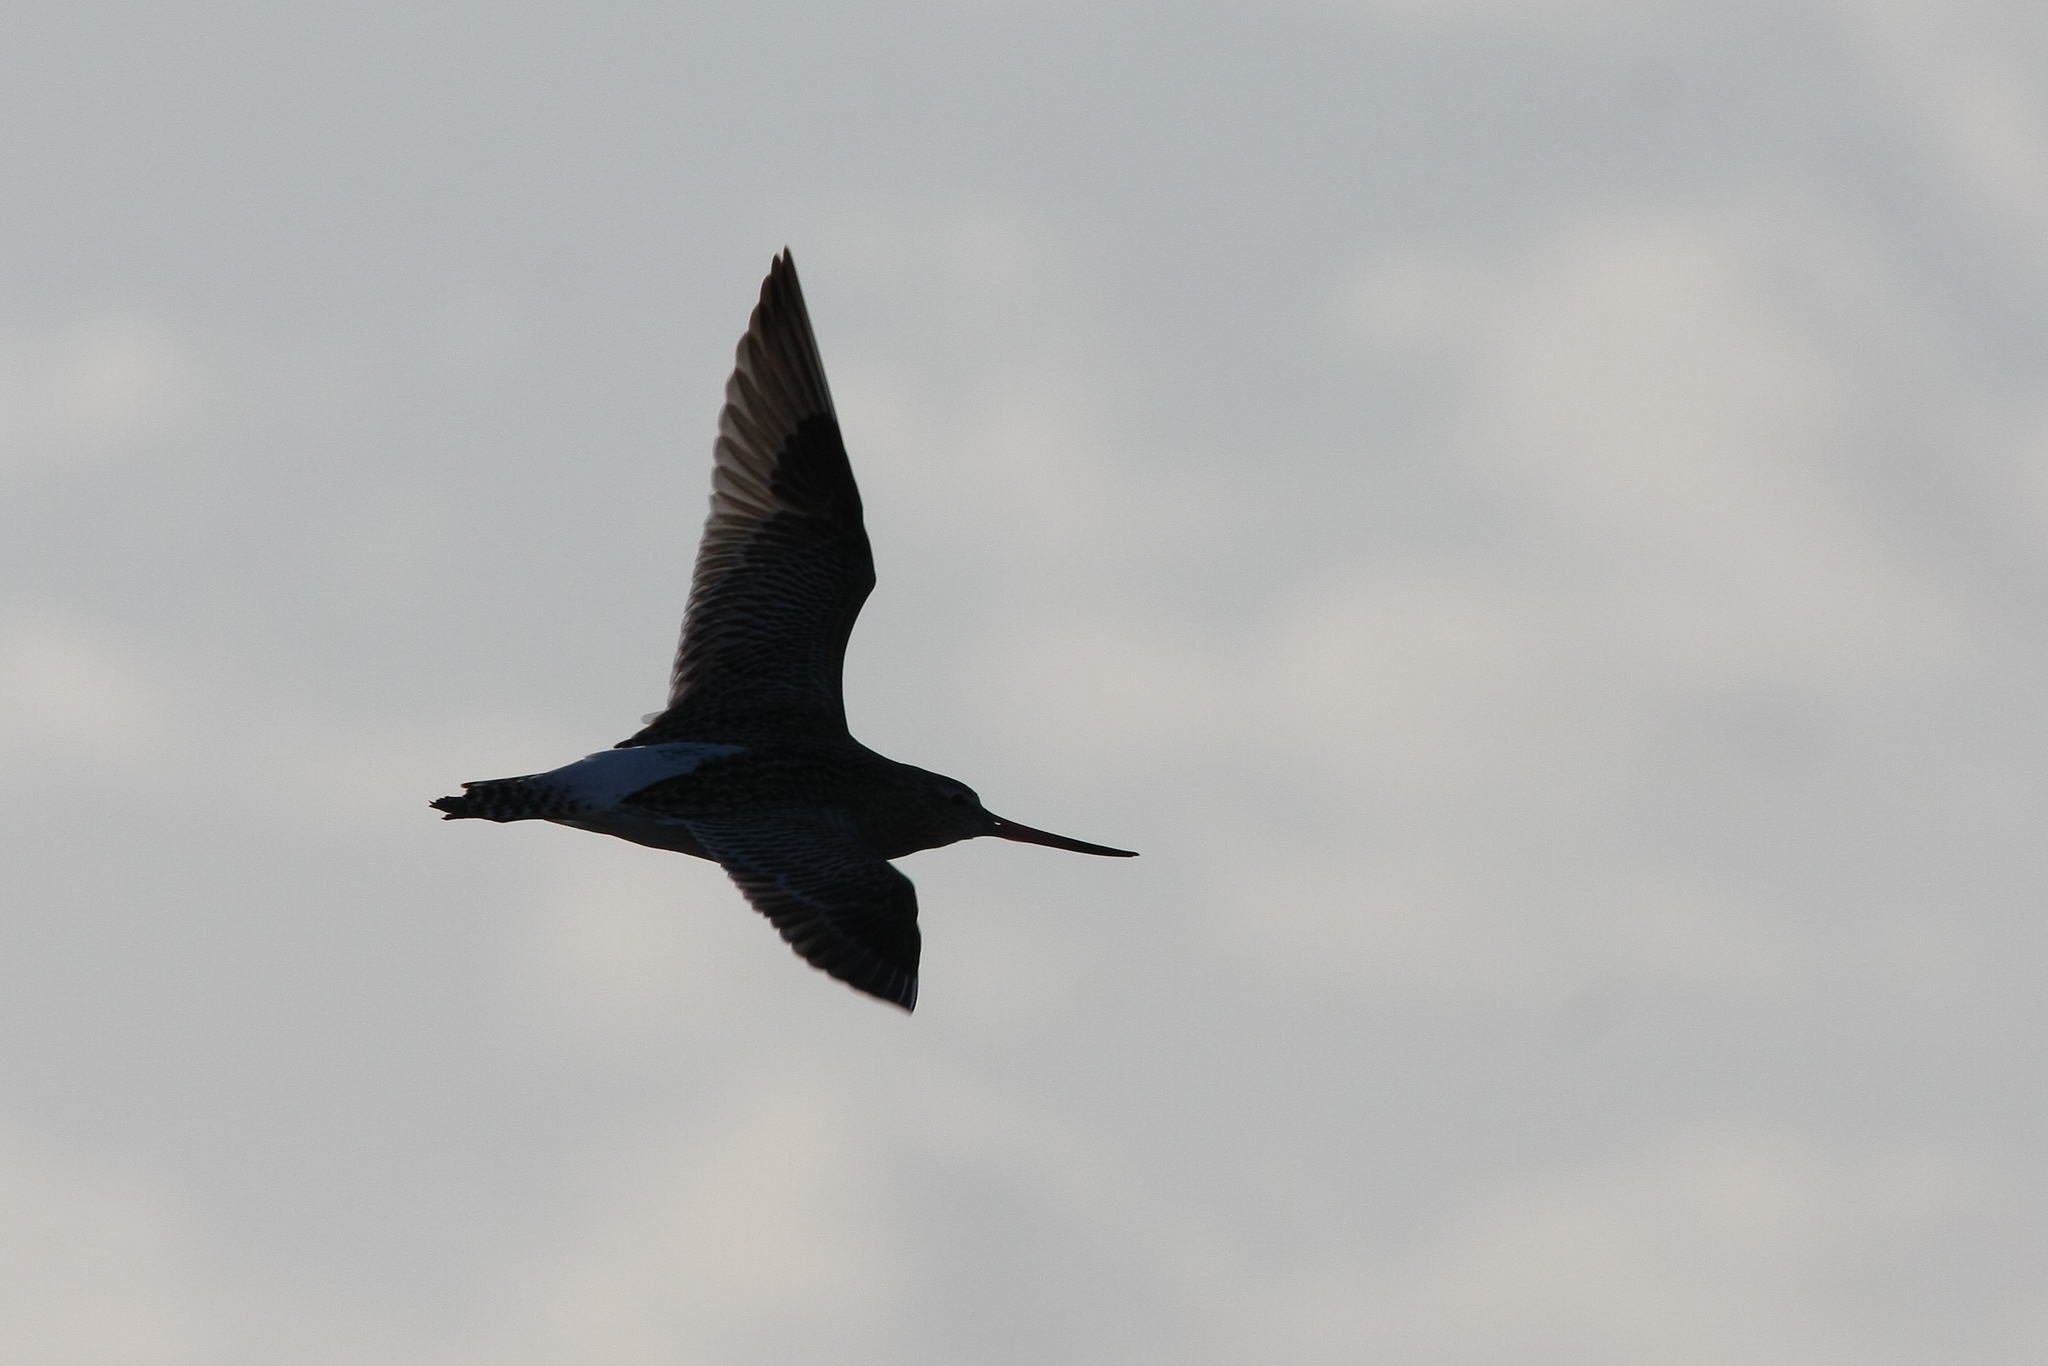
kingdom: Animalia
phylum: Chordata
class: Aves
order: Charadriiformes
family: Scolopacidae
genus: Limosa
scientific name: Limosa lapponica
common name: Bar-tailed godwit
